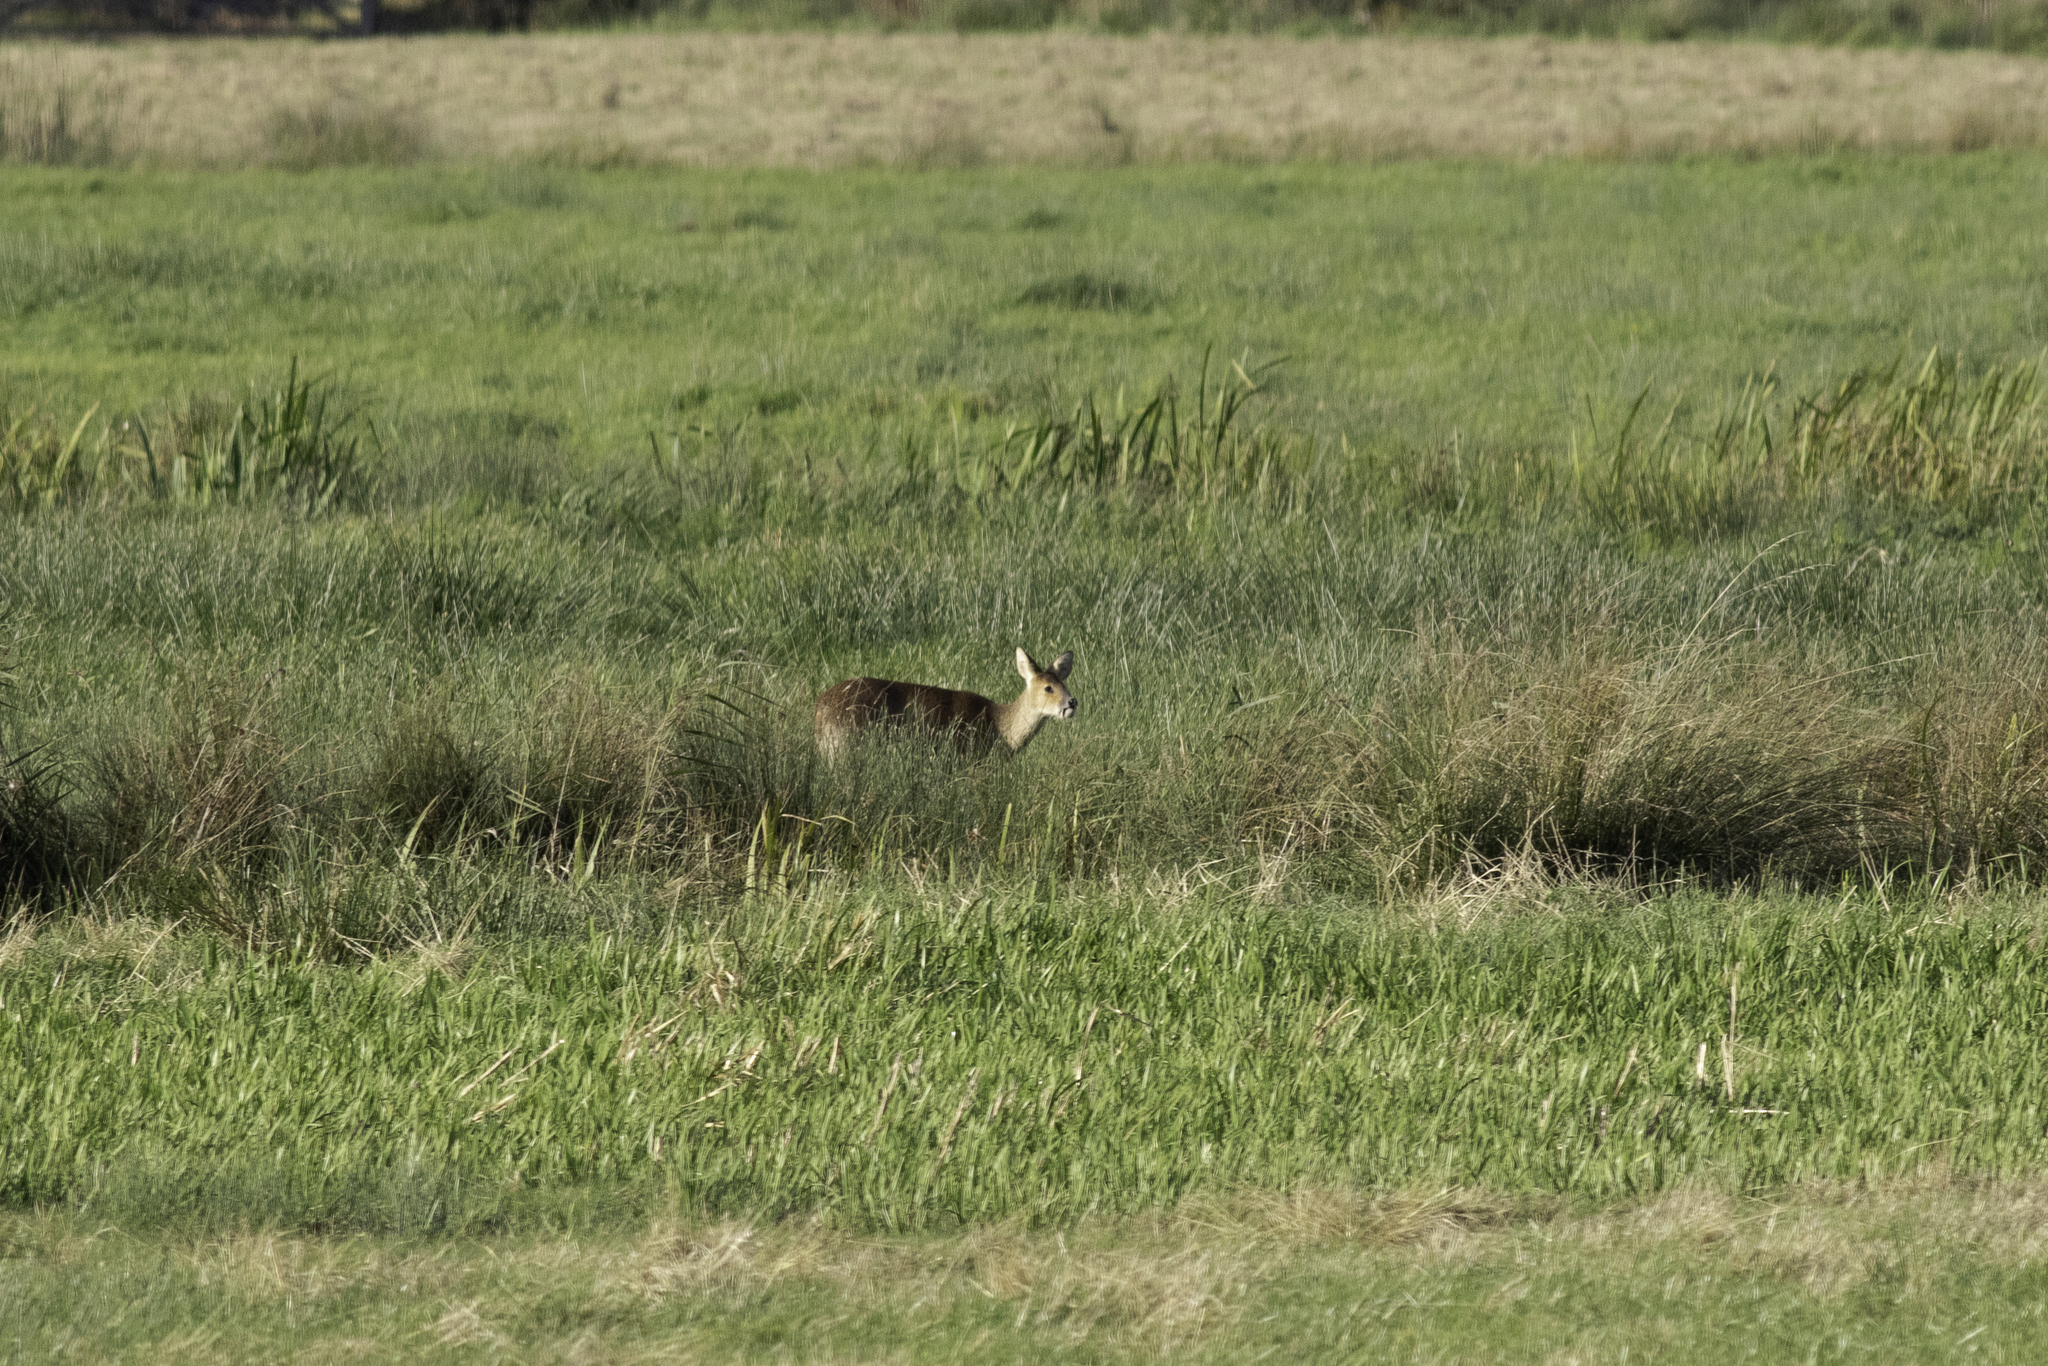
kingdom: Animalia
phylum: Chordata
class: Mammalia
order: Artiodactyla
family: Cervidae
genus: Hydropotes
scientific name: Hydropotes inermis
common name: Chinese water deer
